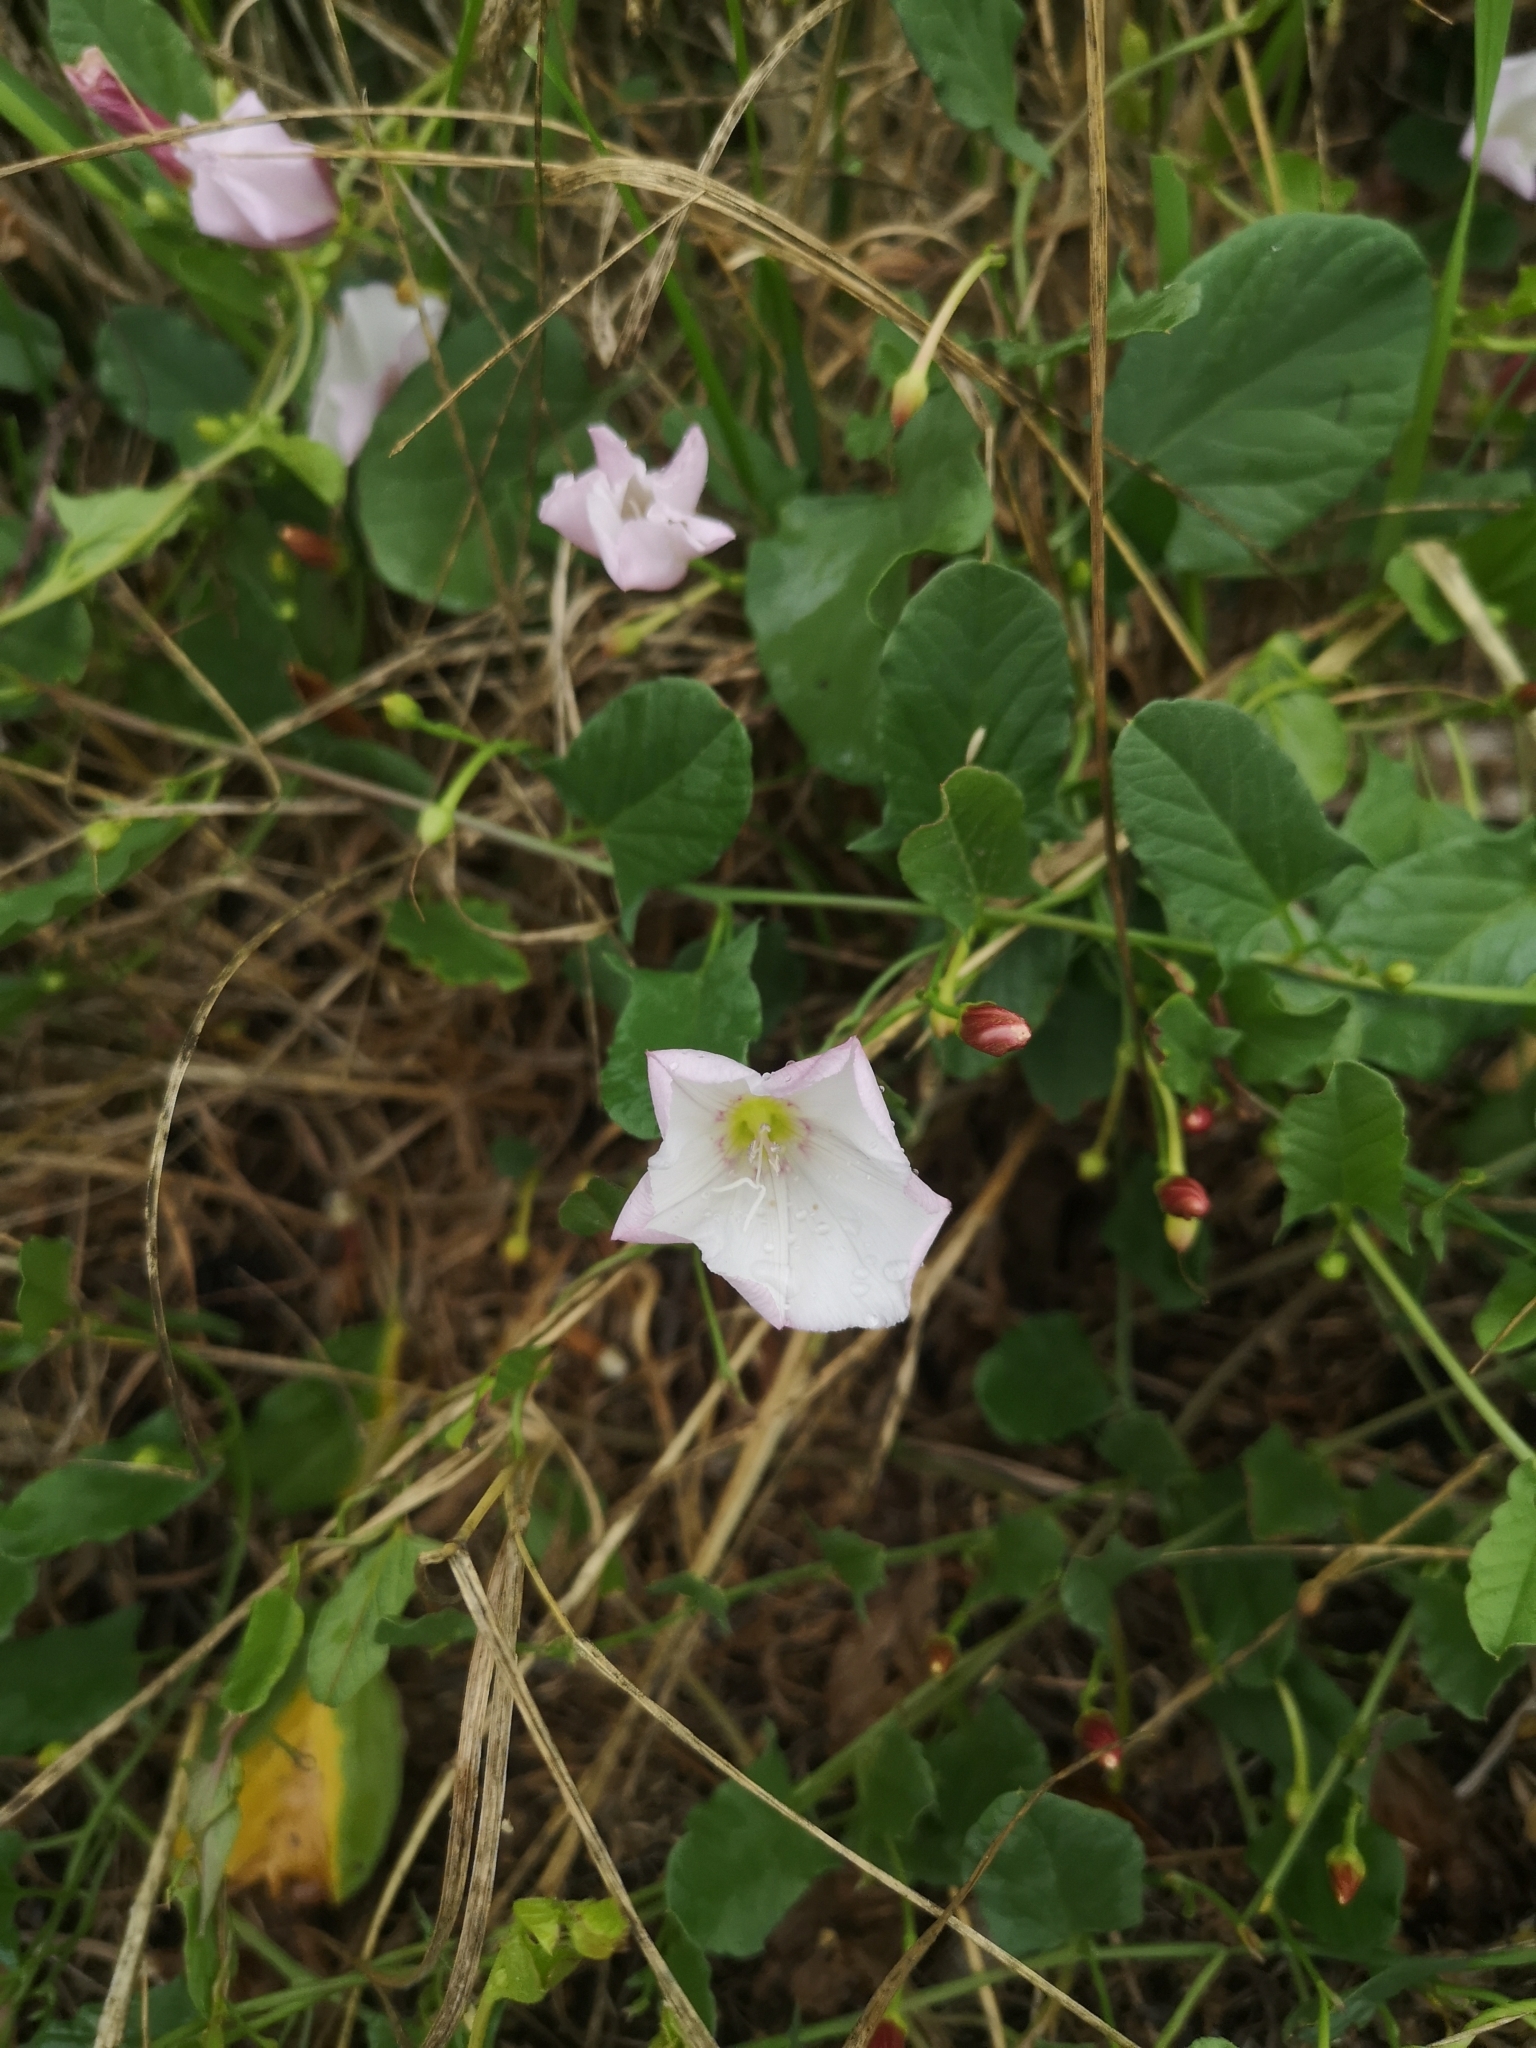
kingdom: Plantae
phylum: Tracheophyta
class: Magnoliopsida
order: Solanales
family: Convolvulaceae
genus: Convolvulus
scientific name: Convolvulus arvensis
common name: Field bindweed
